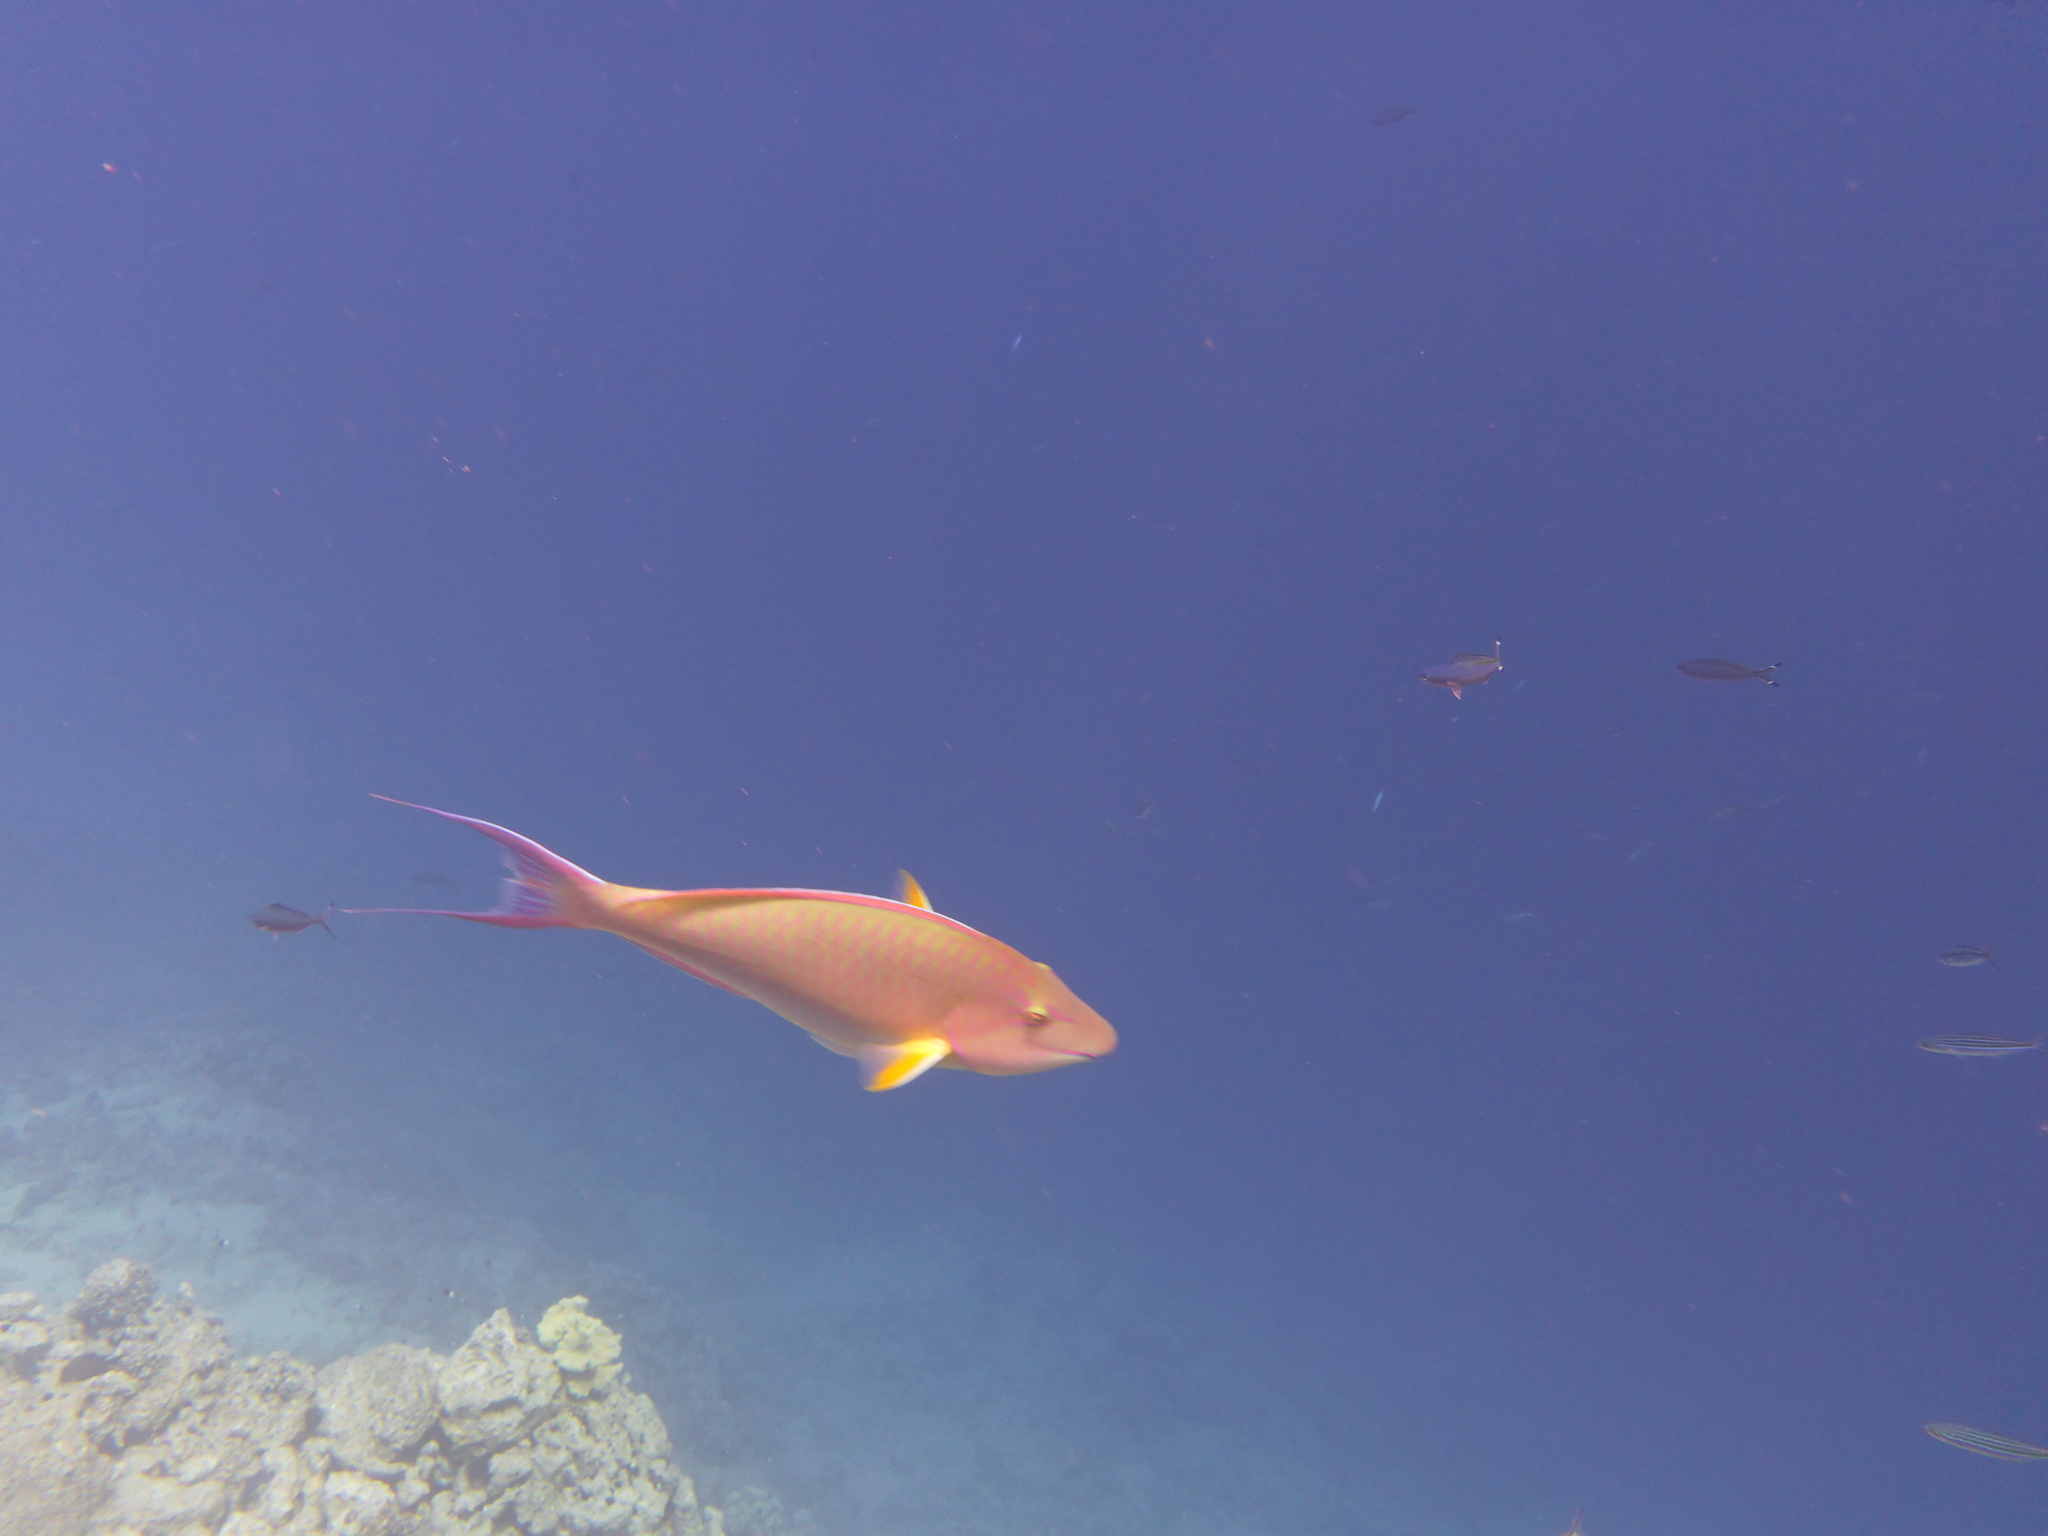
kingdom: Animalia
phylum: Chordata
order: Perciformes
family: Scaridae
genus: Hipposcarus
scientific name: Hipposcarus harid
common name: Candelamoa parrotfish
